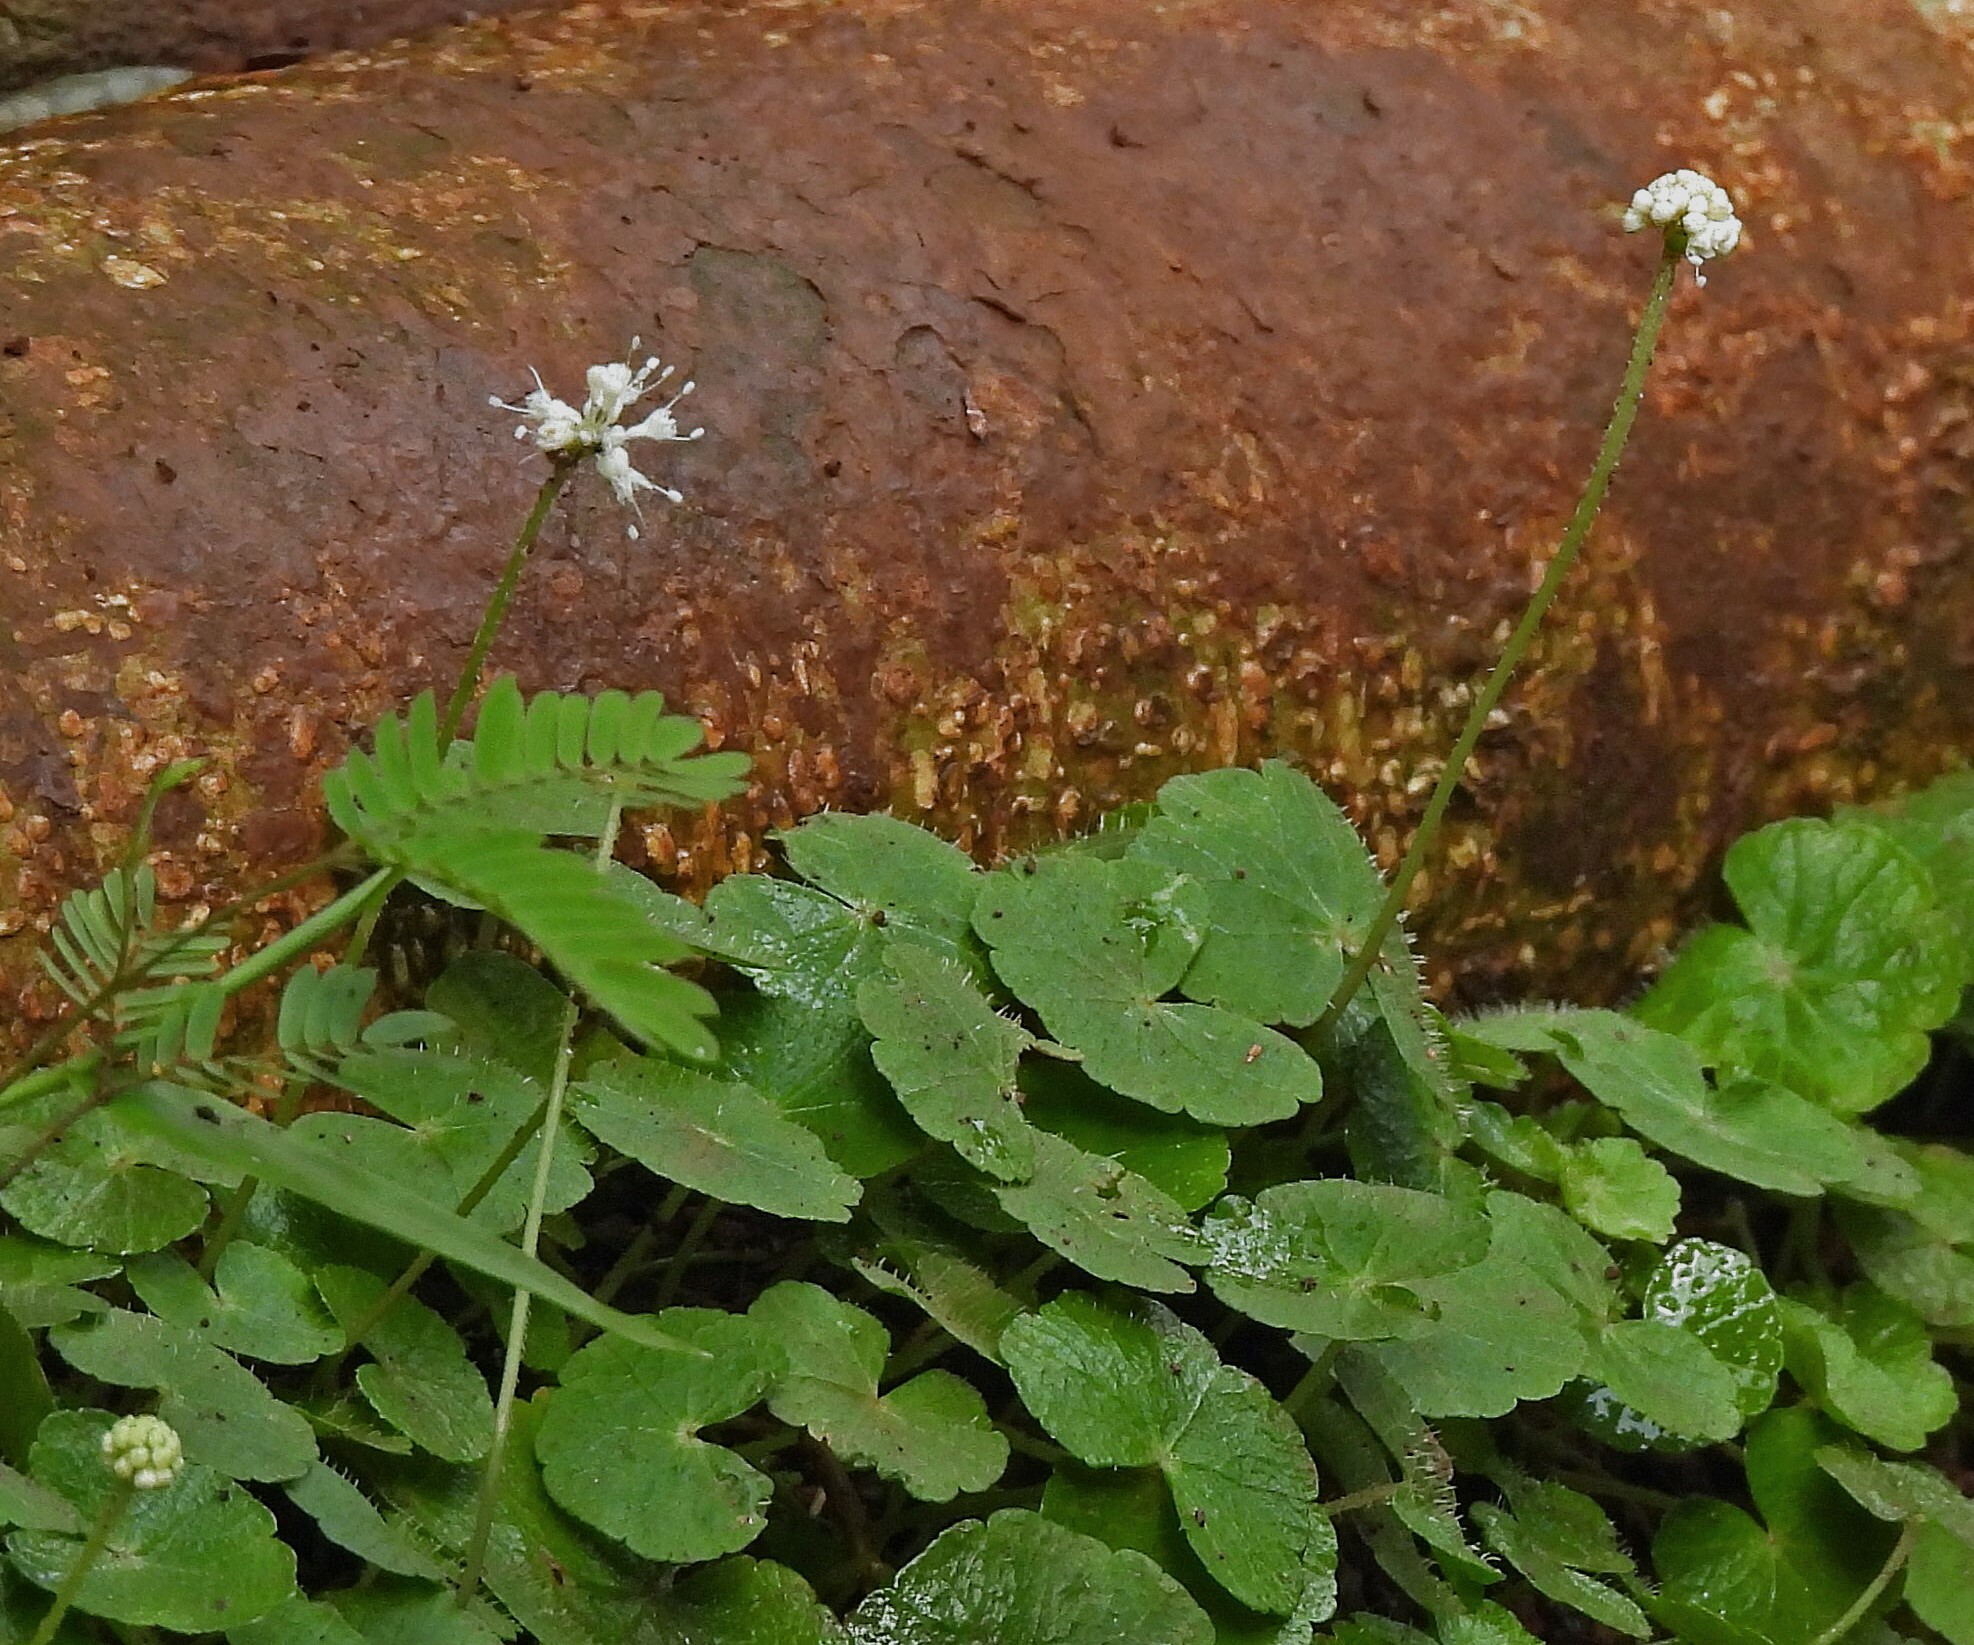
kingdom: Plantae
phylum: Tracheophyta
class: Magnoliopsida
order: Apiales
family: Araliaceae
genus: Hydrocotyle
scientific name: Hydrocotyle leucocephala
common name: Brazilian pennywort
